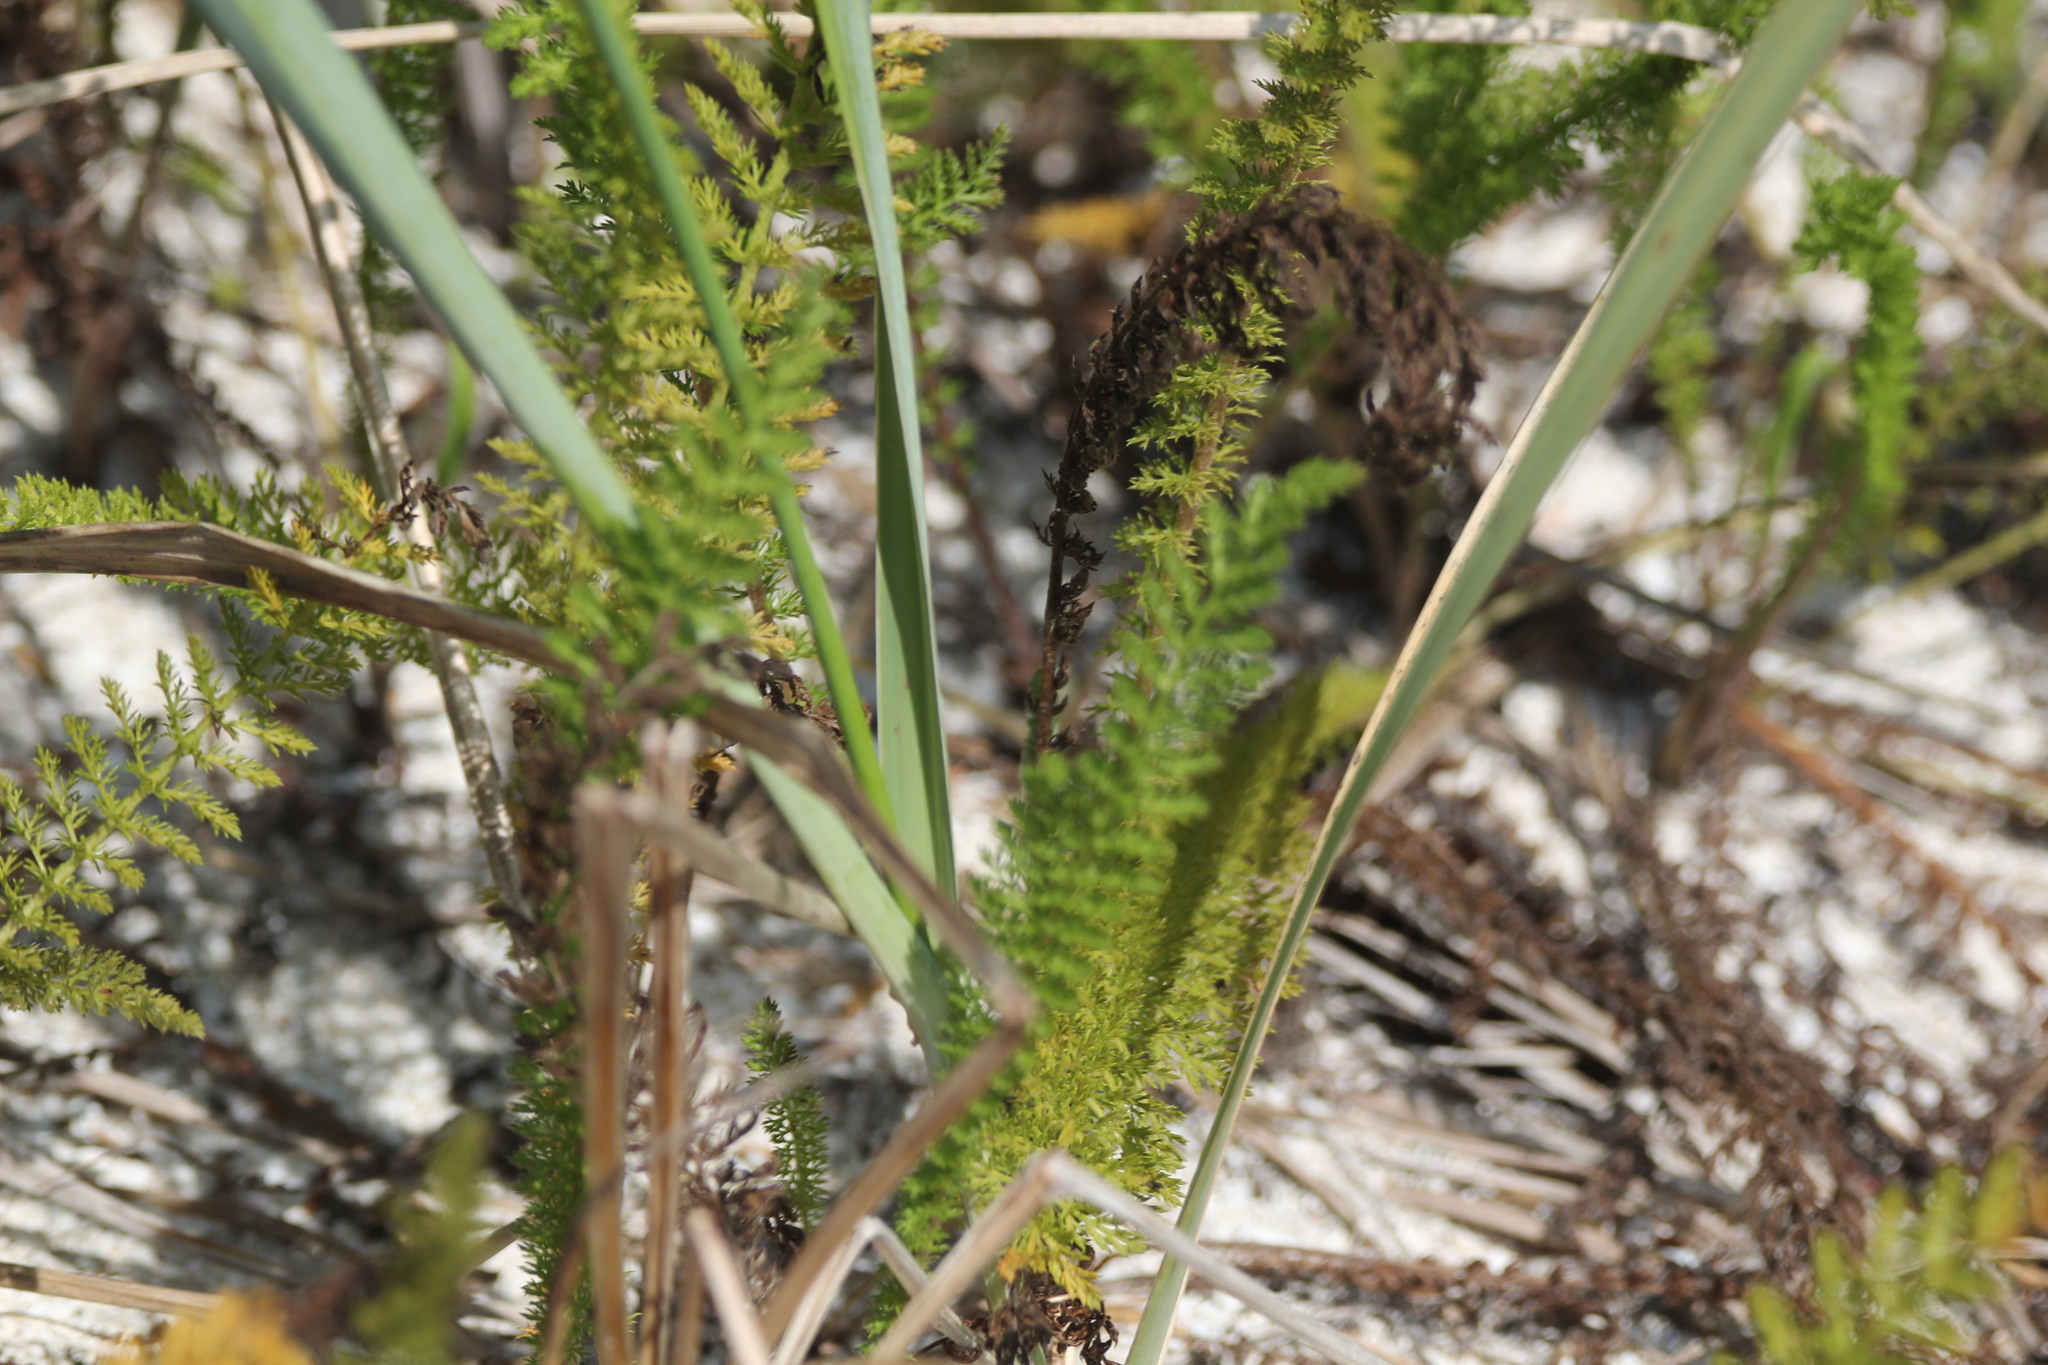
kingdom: Plantae
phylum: Tracheophyta
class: Magnoliopsida
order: Asterales
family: Asteraceae
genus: Achillea
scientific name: Achillea millefolium
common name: Yarrow
